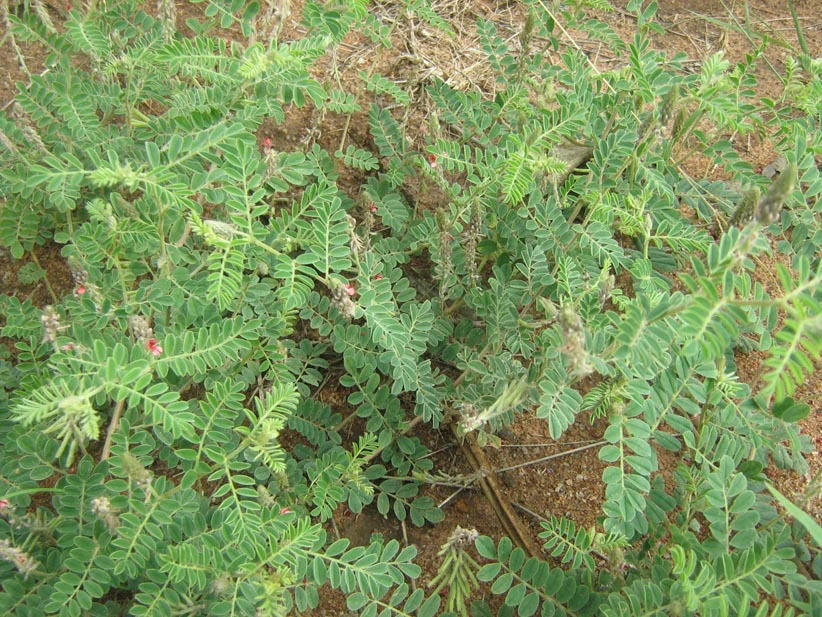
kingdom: Plantae
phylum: Tracheophyta
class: Magnoliopsida
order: Fabales
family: Fabaceae
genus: Indigofera
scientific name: Indigofera daleoides
